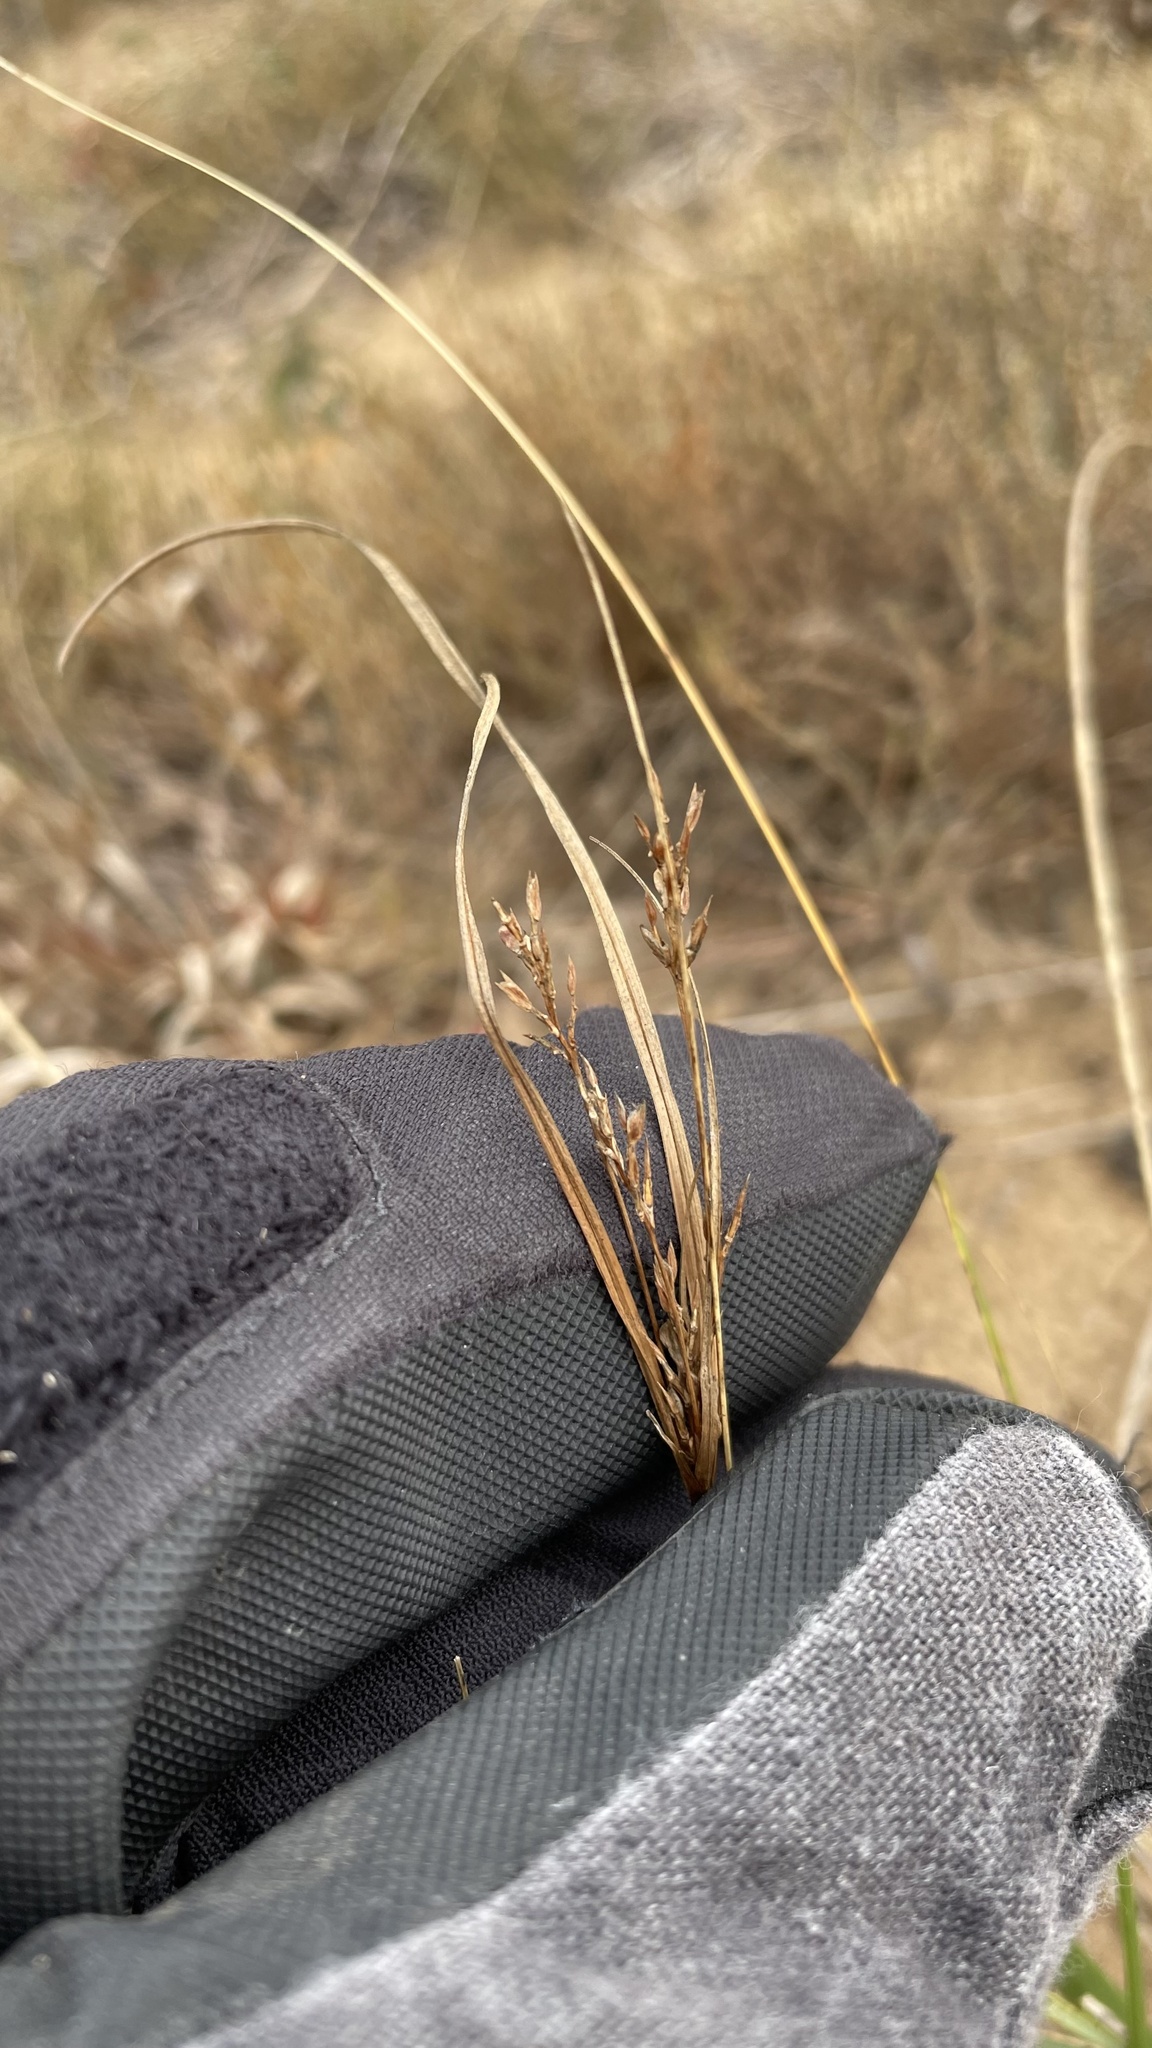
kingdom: Plantae
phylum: Tracheophyta
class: Liliopsida
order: Poales
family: Cyperaceae
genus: Cyperus
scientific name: Cyperus schweinitzii
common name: Schweinitz's cyperus
